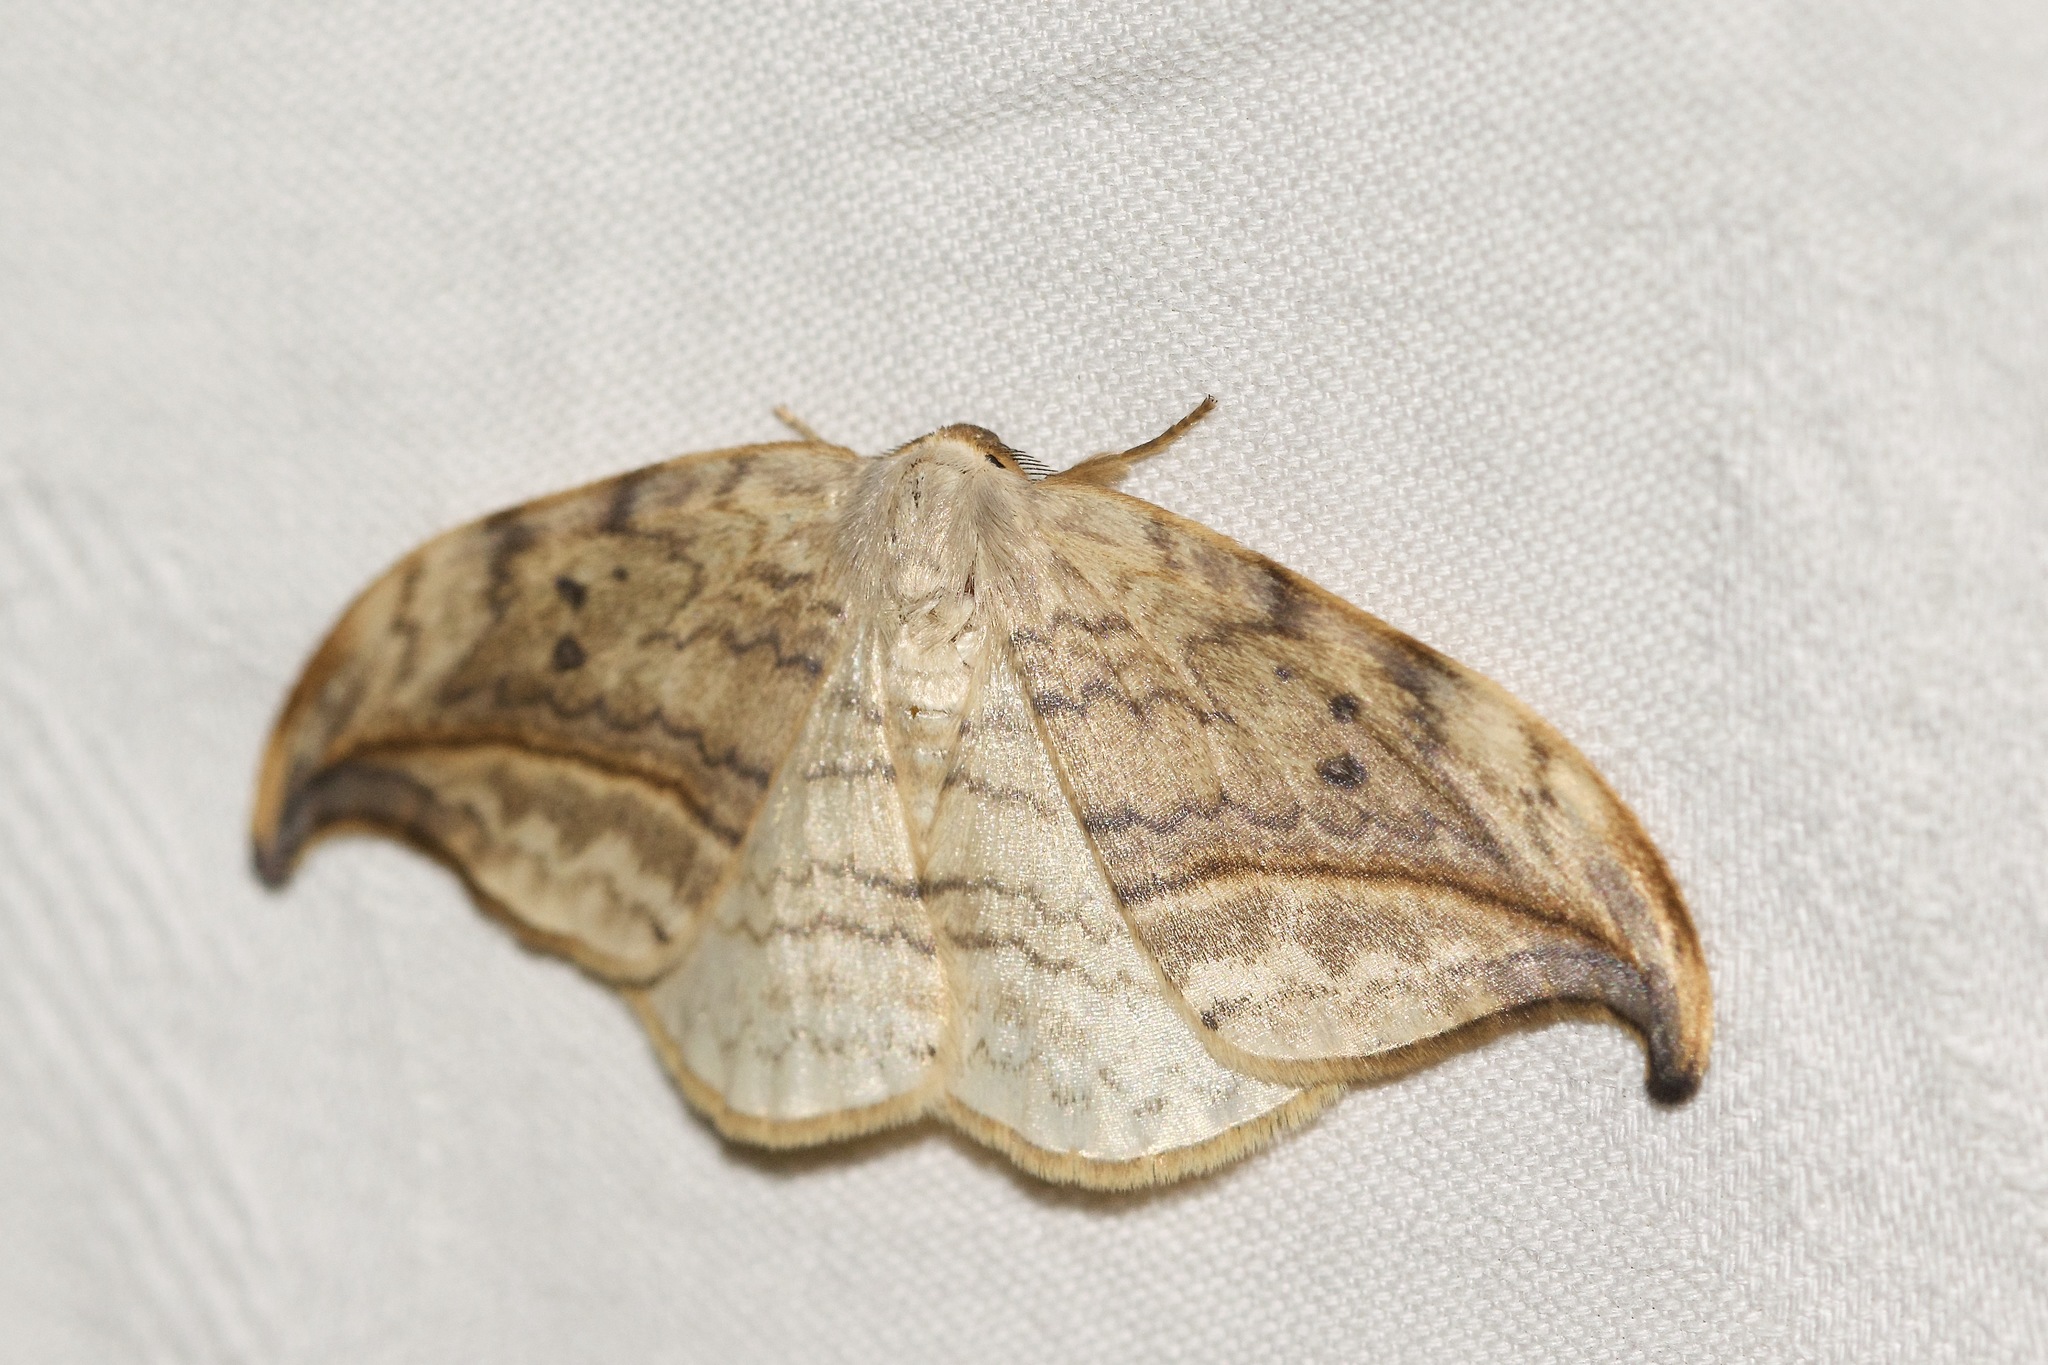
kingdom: Animalia
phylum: Arthropoda
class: Insecta
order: Lepidoptera
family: Drepanidae
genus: Drepana
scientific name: Drepana arcuata
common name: Arched hooktip moth
